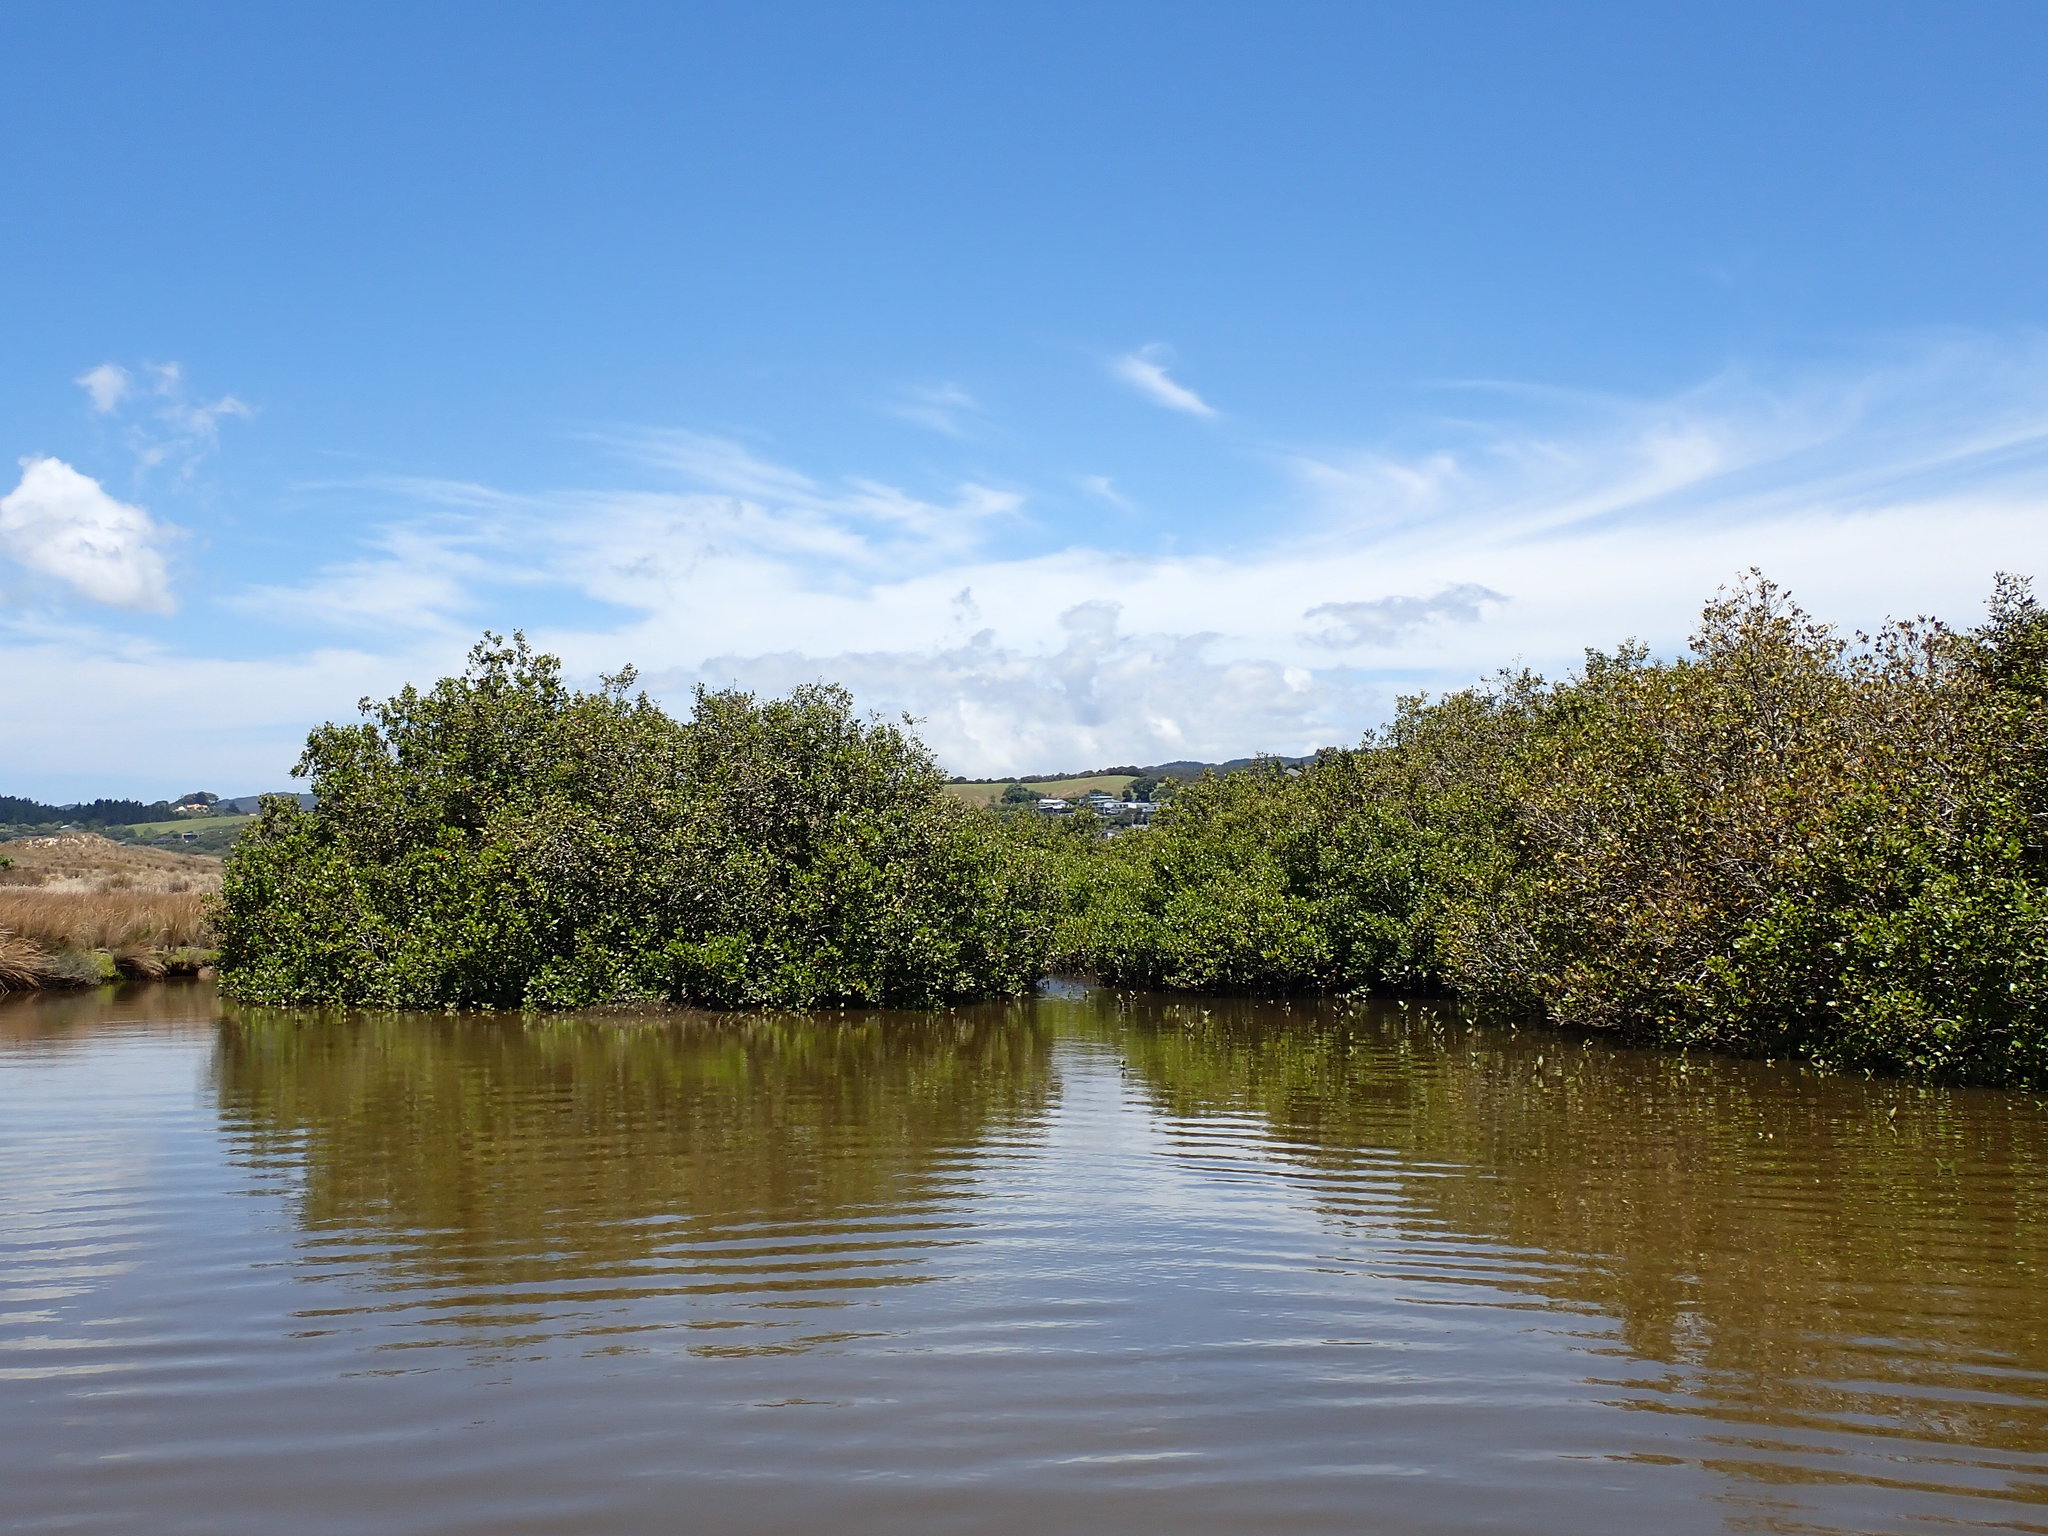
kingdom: Plantae
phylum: Tracheophyta
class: Magnoliopsida
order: Lamiales
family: Acanthaceae
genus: Avicennia
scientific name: Avicennia marina
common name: Gray mangrove
